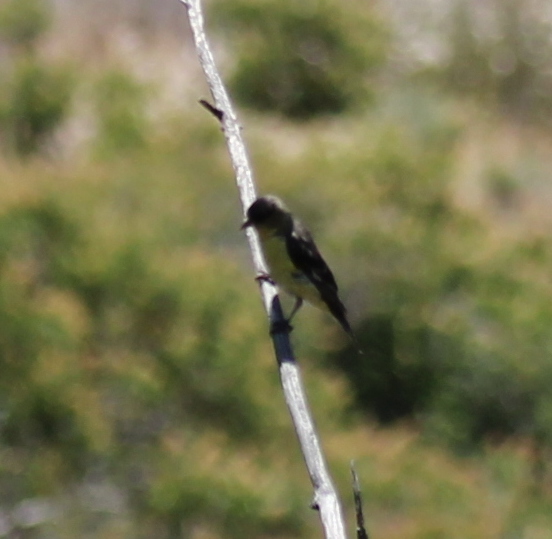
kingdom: Animalia
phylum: Chordata
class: Aves
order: Passeriformes
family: Fringillidae
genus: Spinus
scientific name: Spinus psaltria
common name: Lesser goldfinch
